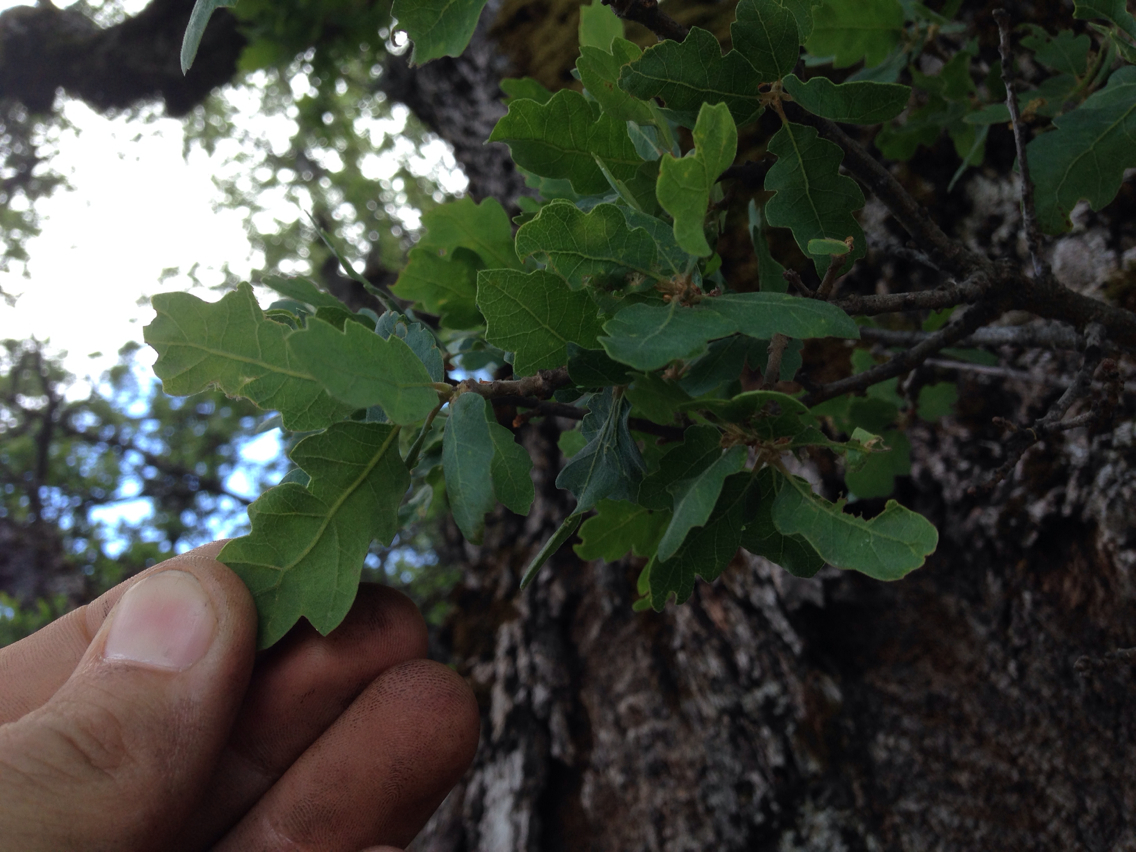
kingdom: Plantae
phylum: Tracheophyta
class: Magnoliopsida
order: Fagales
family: Fagaceae
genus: Quercus
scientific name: Quercus douglasii
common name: Blue oak
